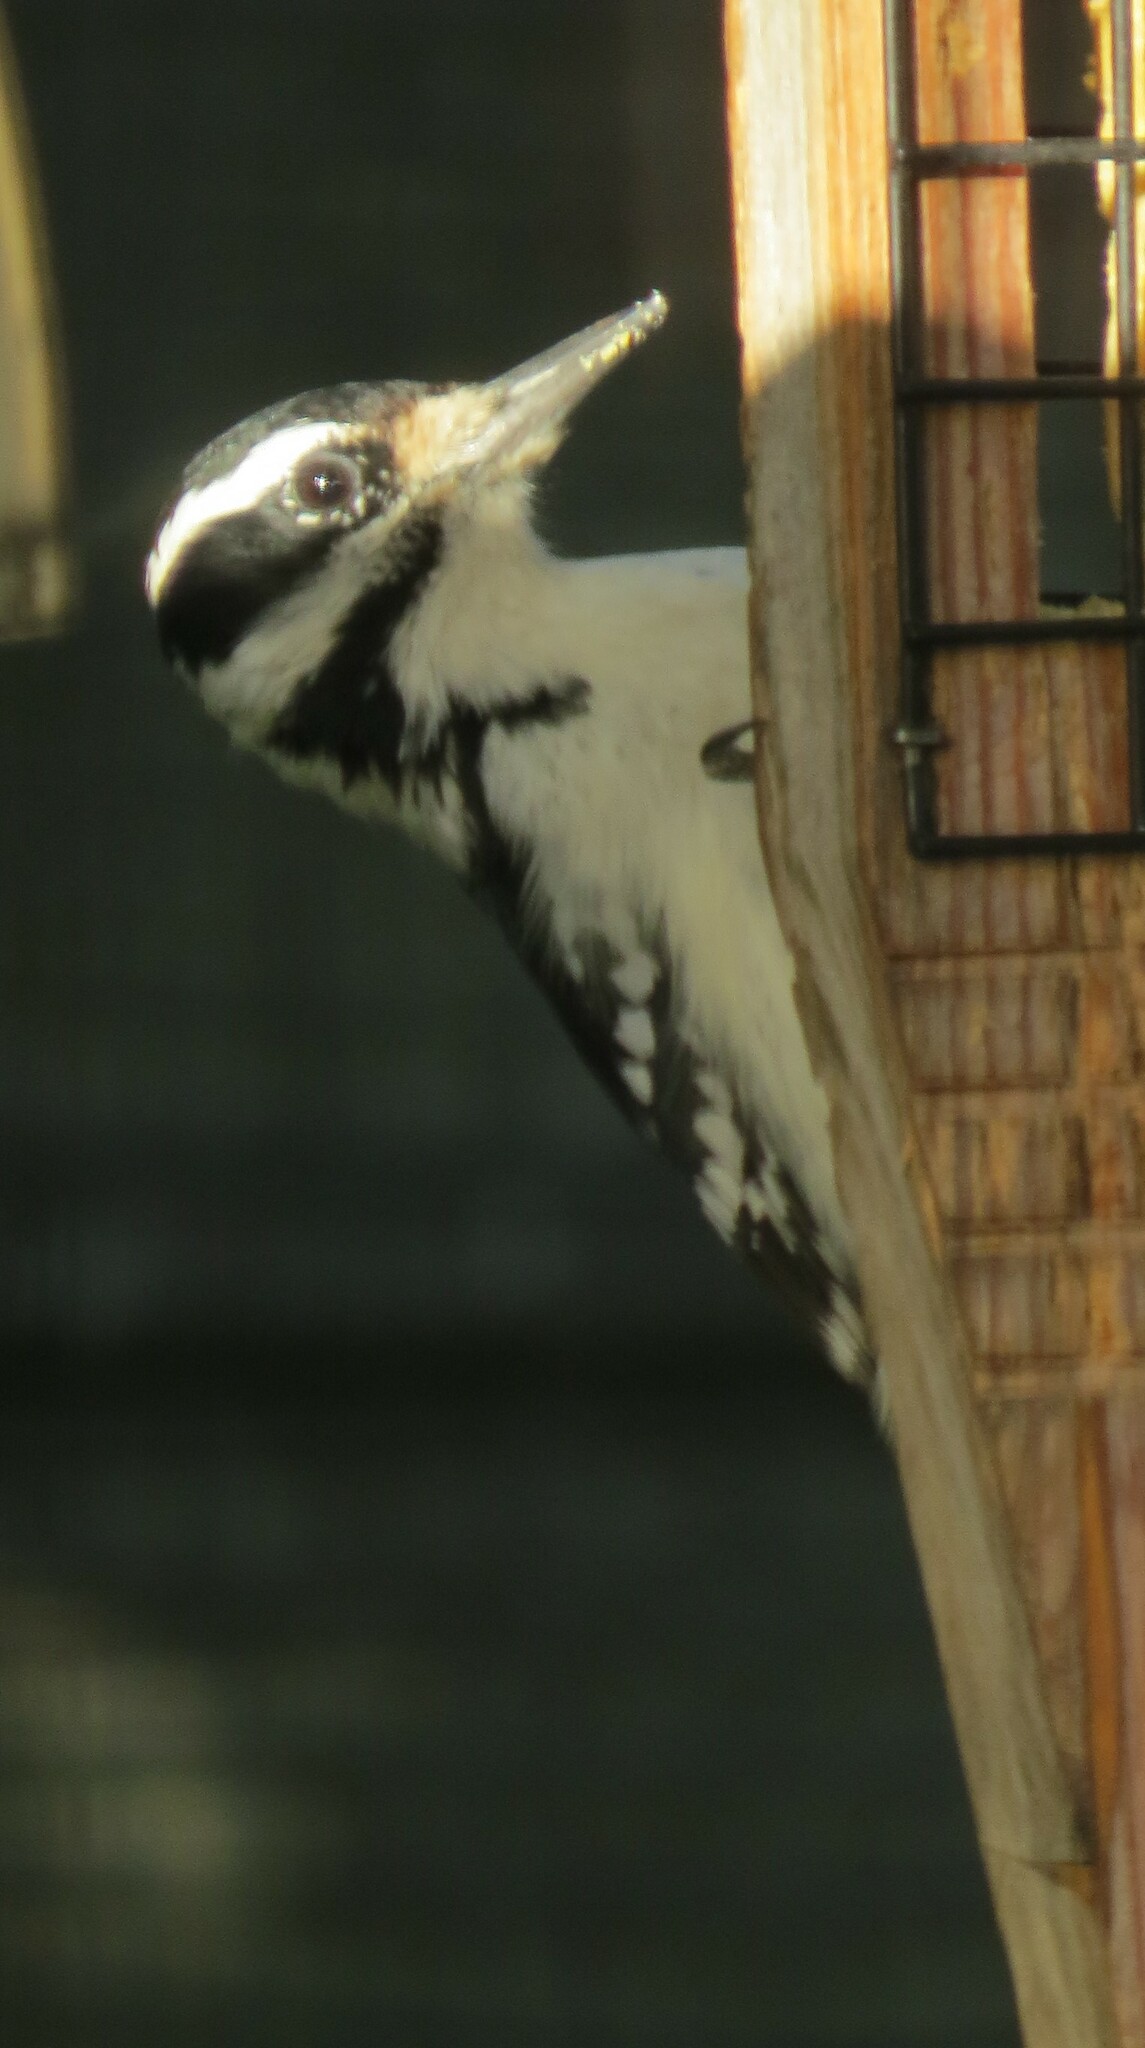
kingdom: Animalia
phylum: Chordata
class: Aves
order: Piciformes
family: Picidae
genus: Leuconotopicus
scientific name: Leuconotopicus villosus
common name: Hairy woodpecker
